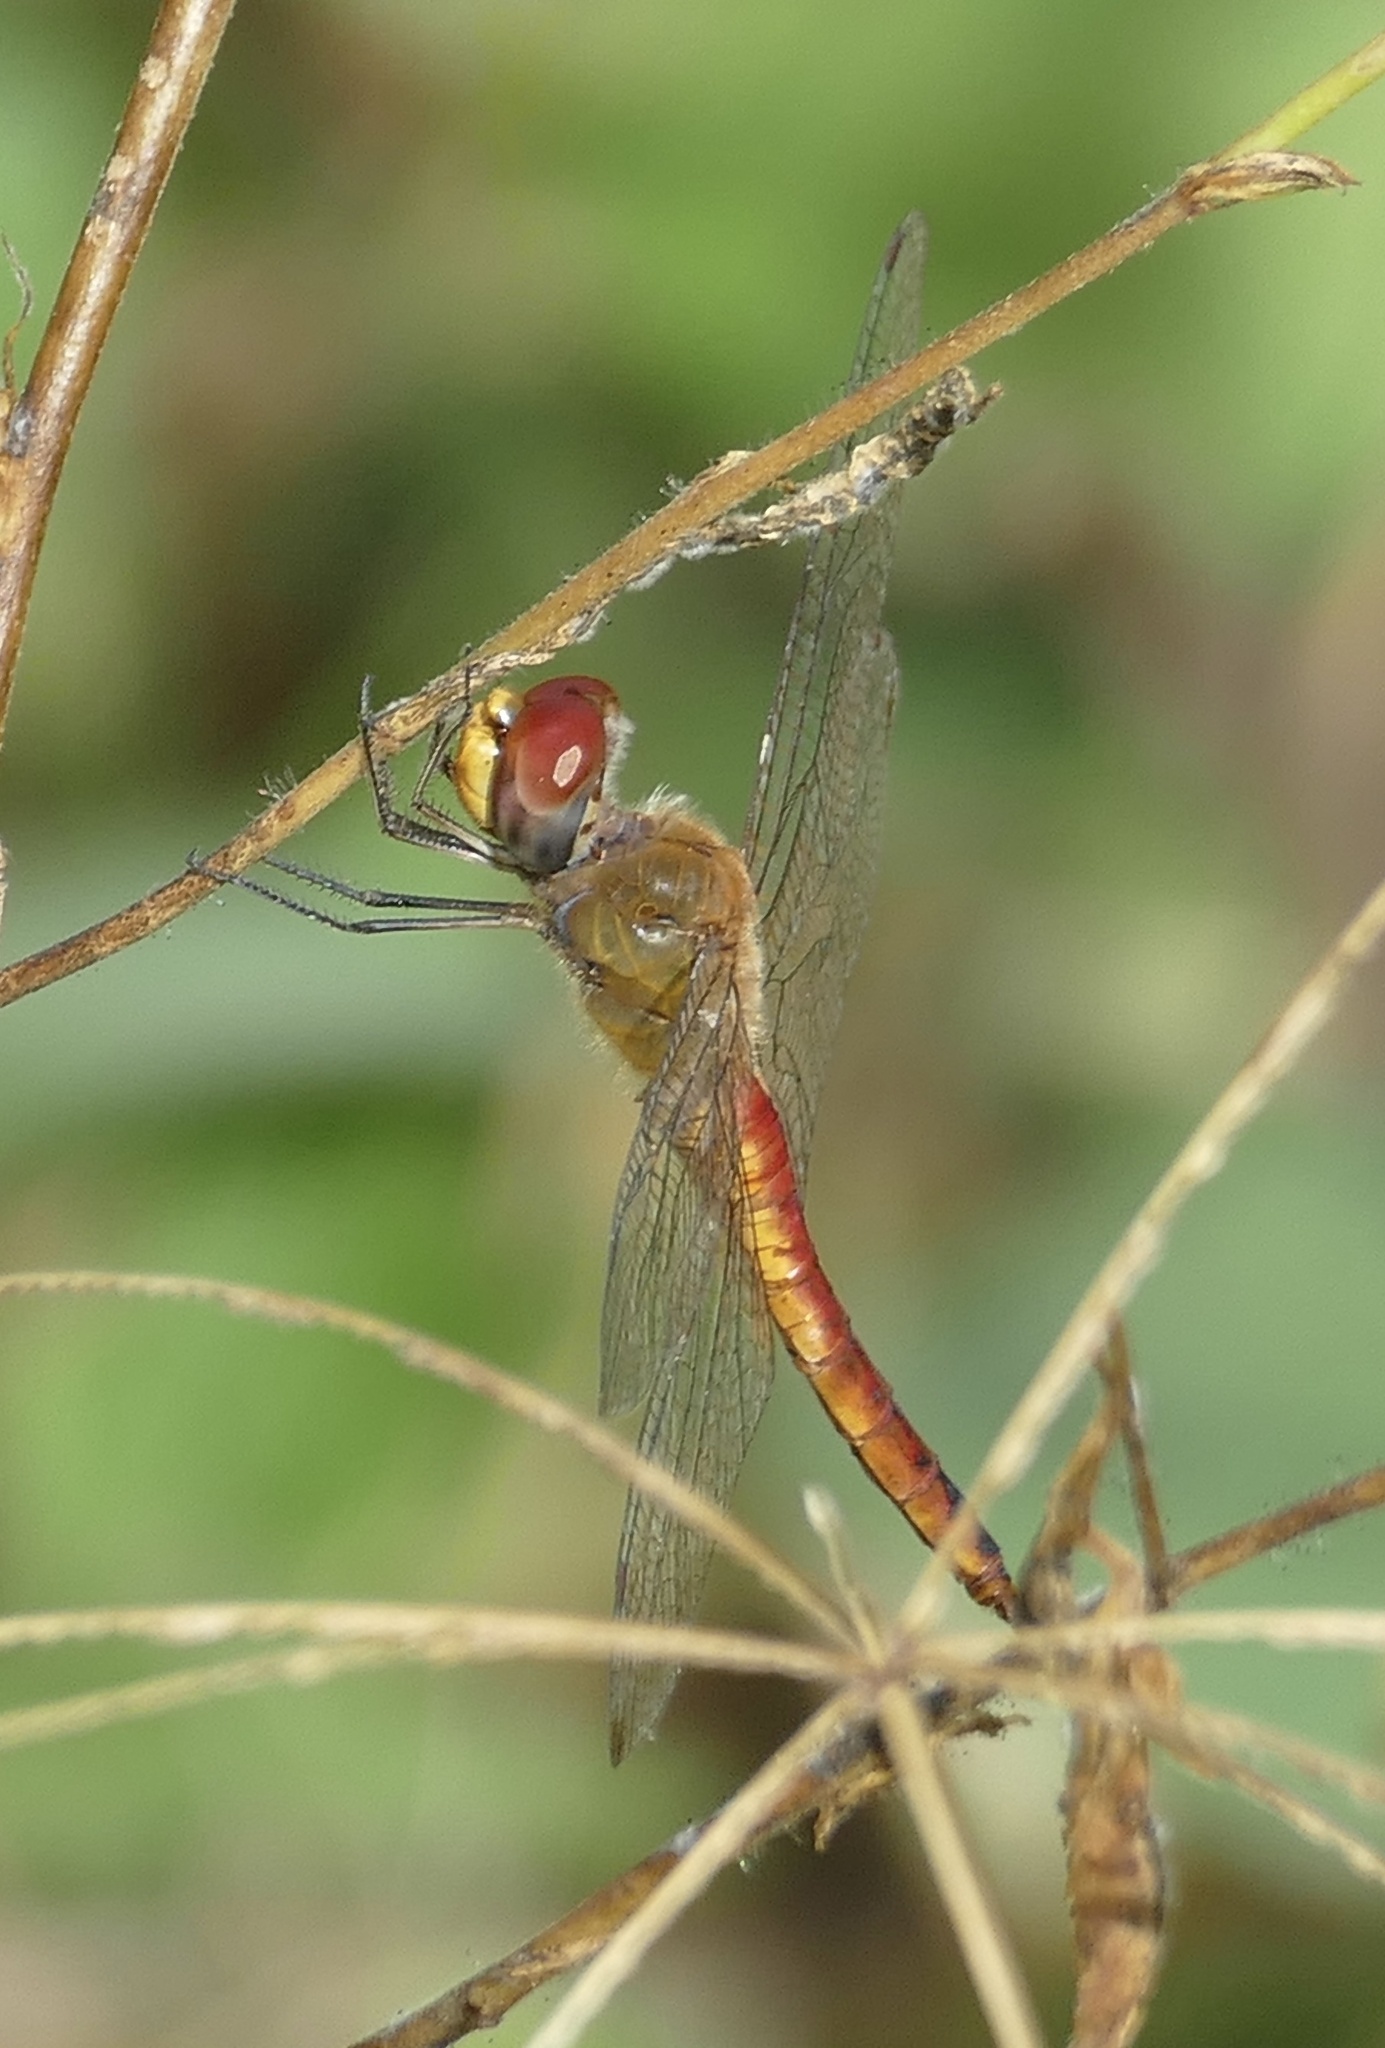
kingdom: Animalia
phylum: Arthropoda
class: Insecta
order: Odonata
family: Libellulidae
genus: Pantala
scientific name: Pantala flavescens
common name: Wandering glider
